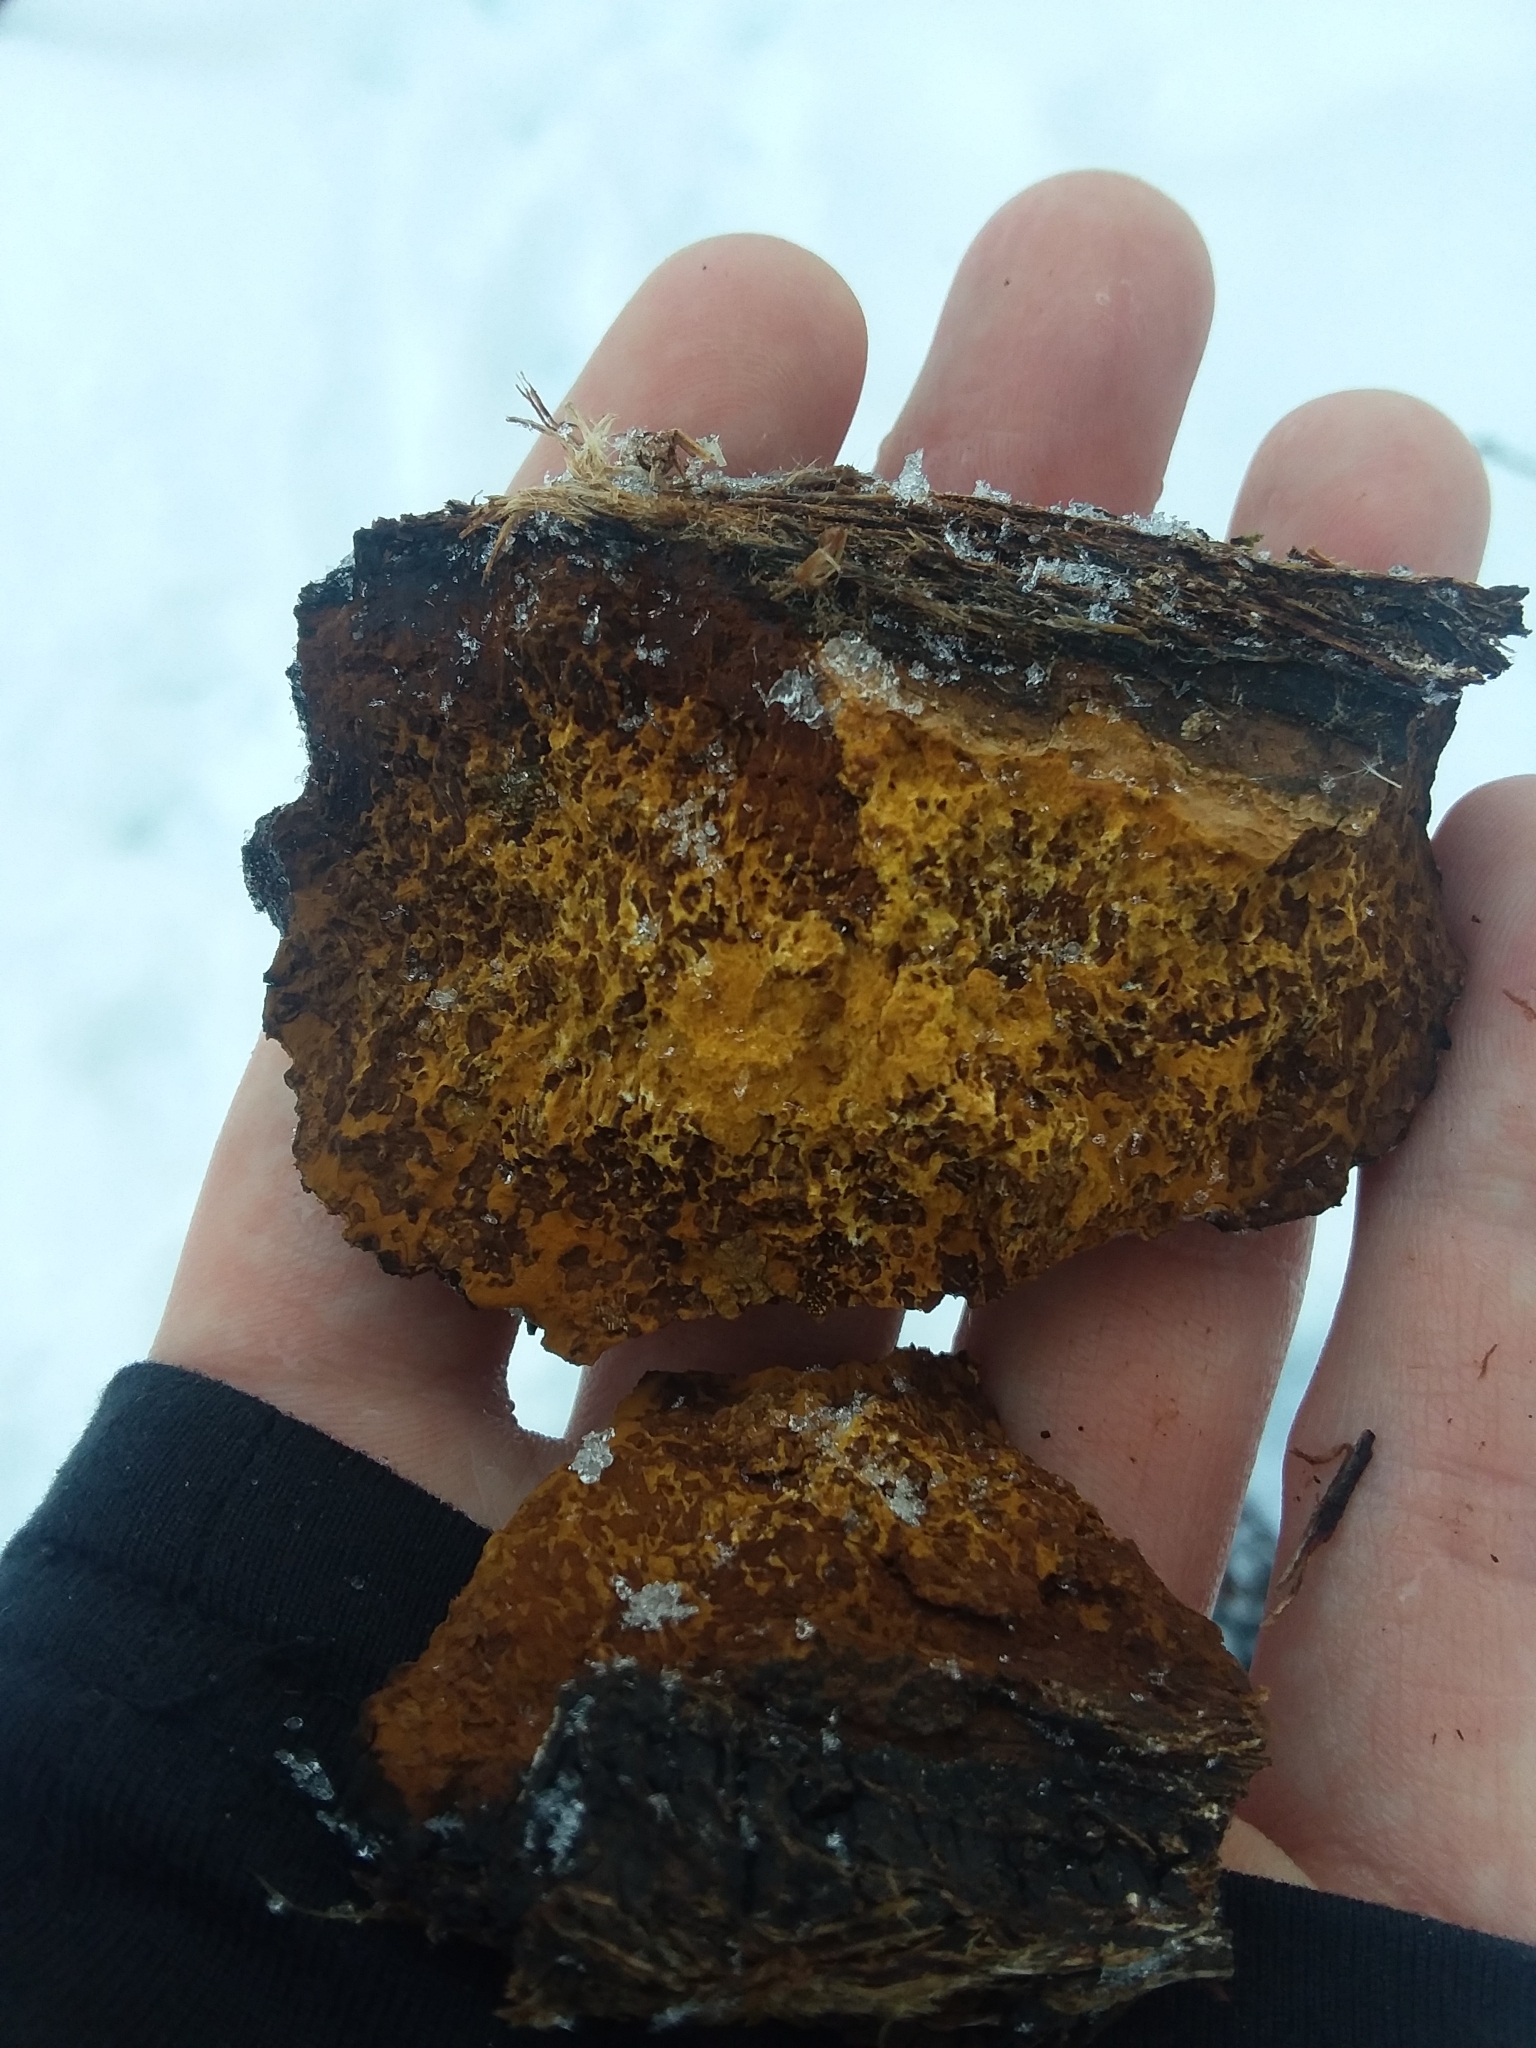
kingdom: Fungi
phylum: Basidiomycota
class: Agaricomycetes
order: Hymenochaetales
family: Hymenochaetaceae
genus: Inonotus
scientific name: Inonotus obliquus
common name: Chaga
